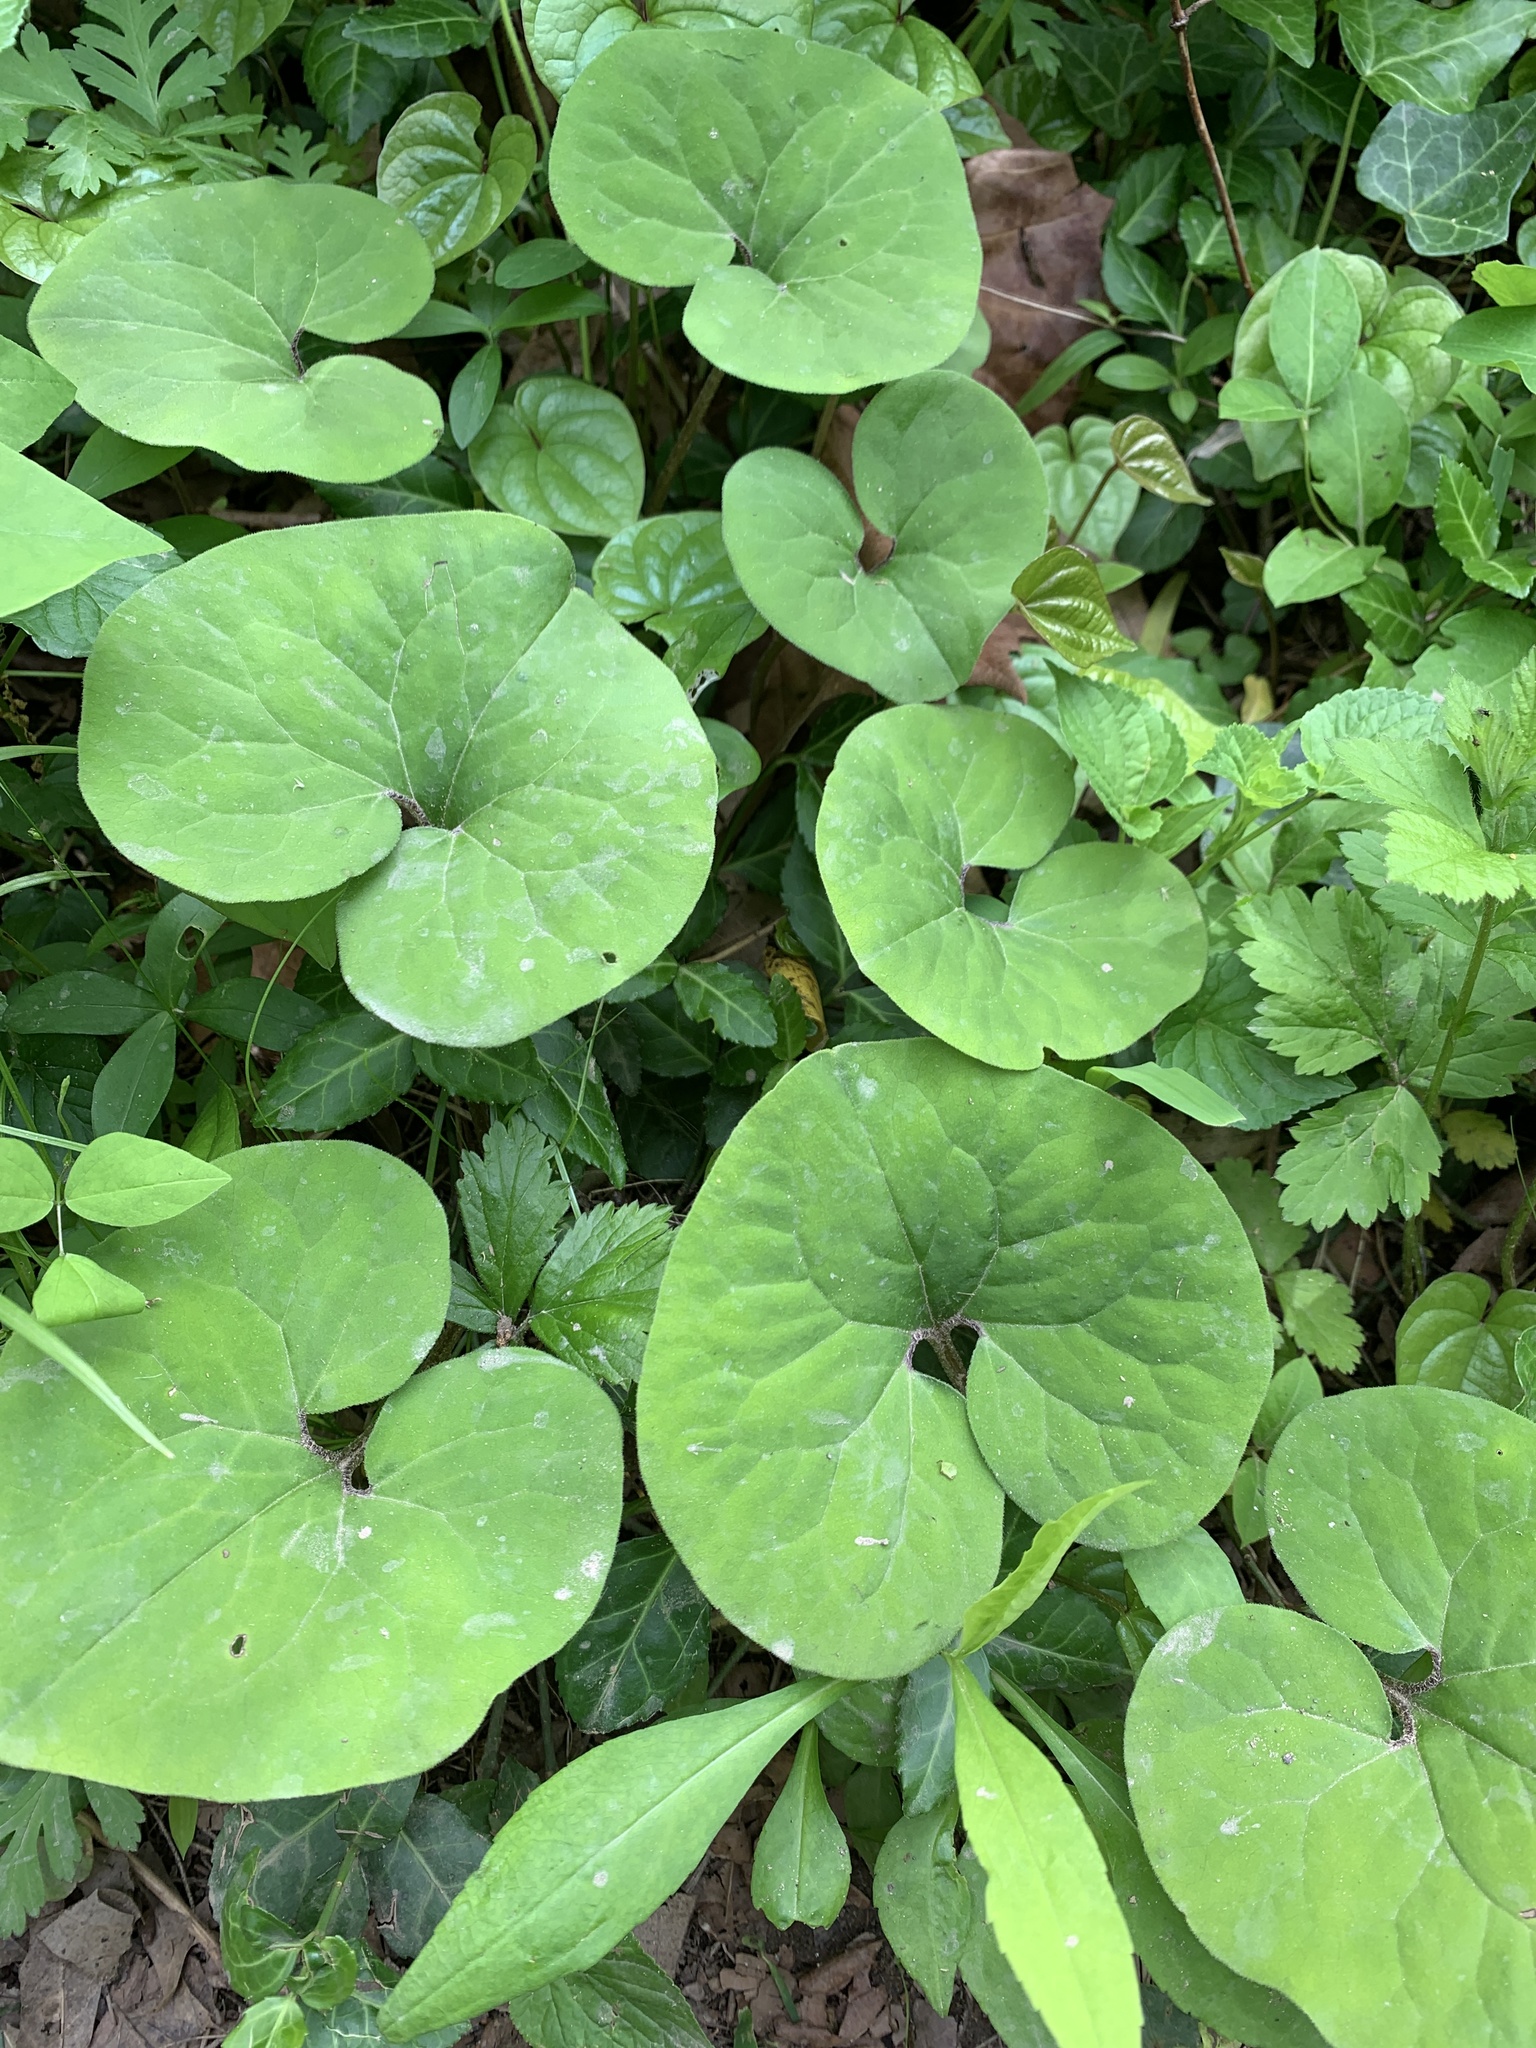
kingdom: Plantae
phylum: Tracheophyta
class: Magnoliopsida
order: Piperales
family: Aristolochiaceae
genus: Asarum
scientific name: Asarum canadense
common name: Wild ginger
